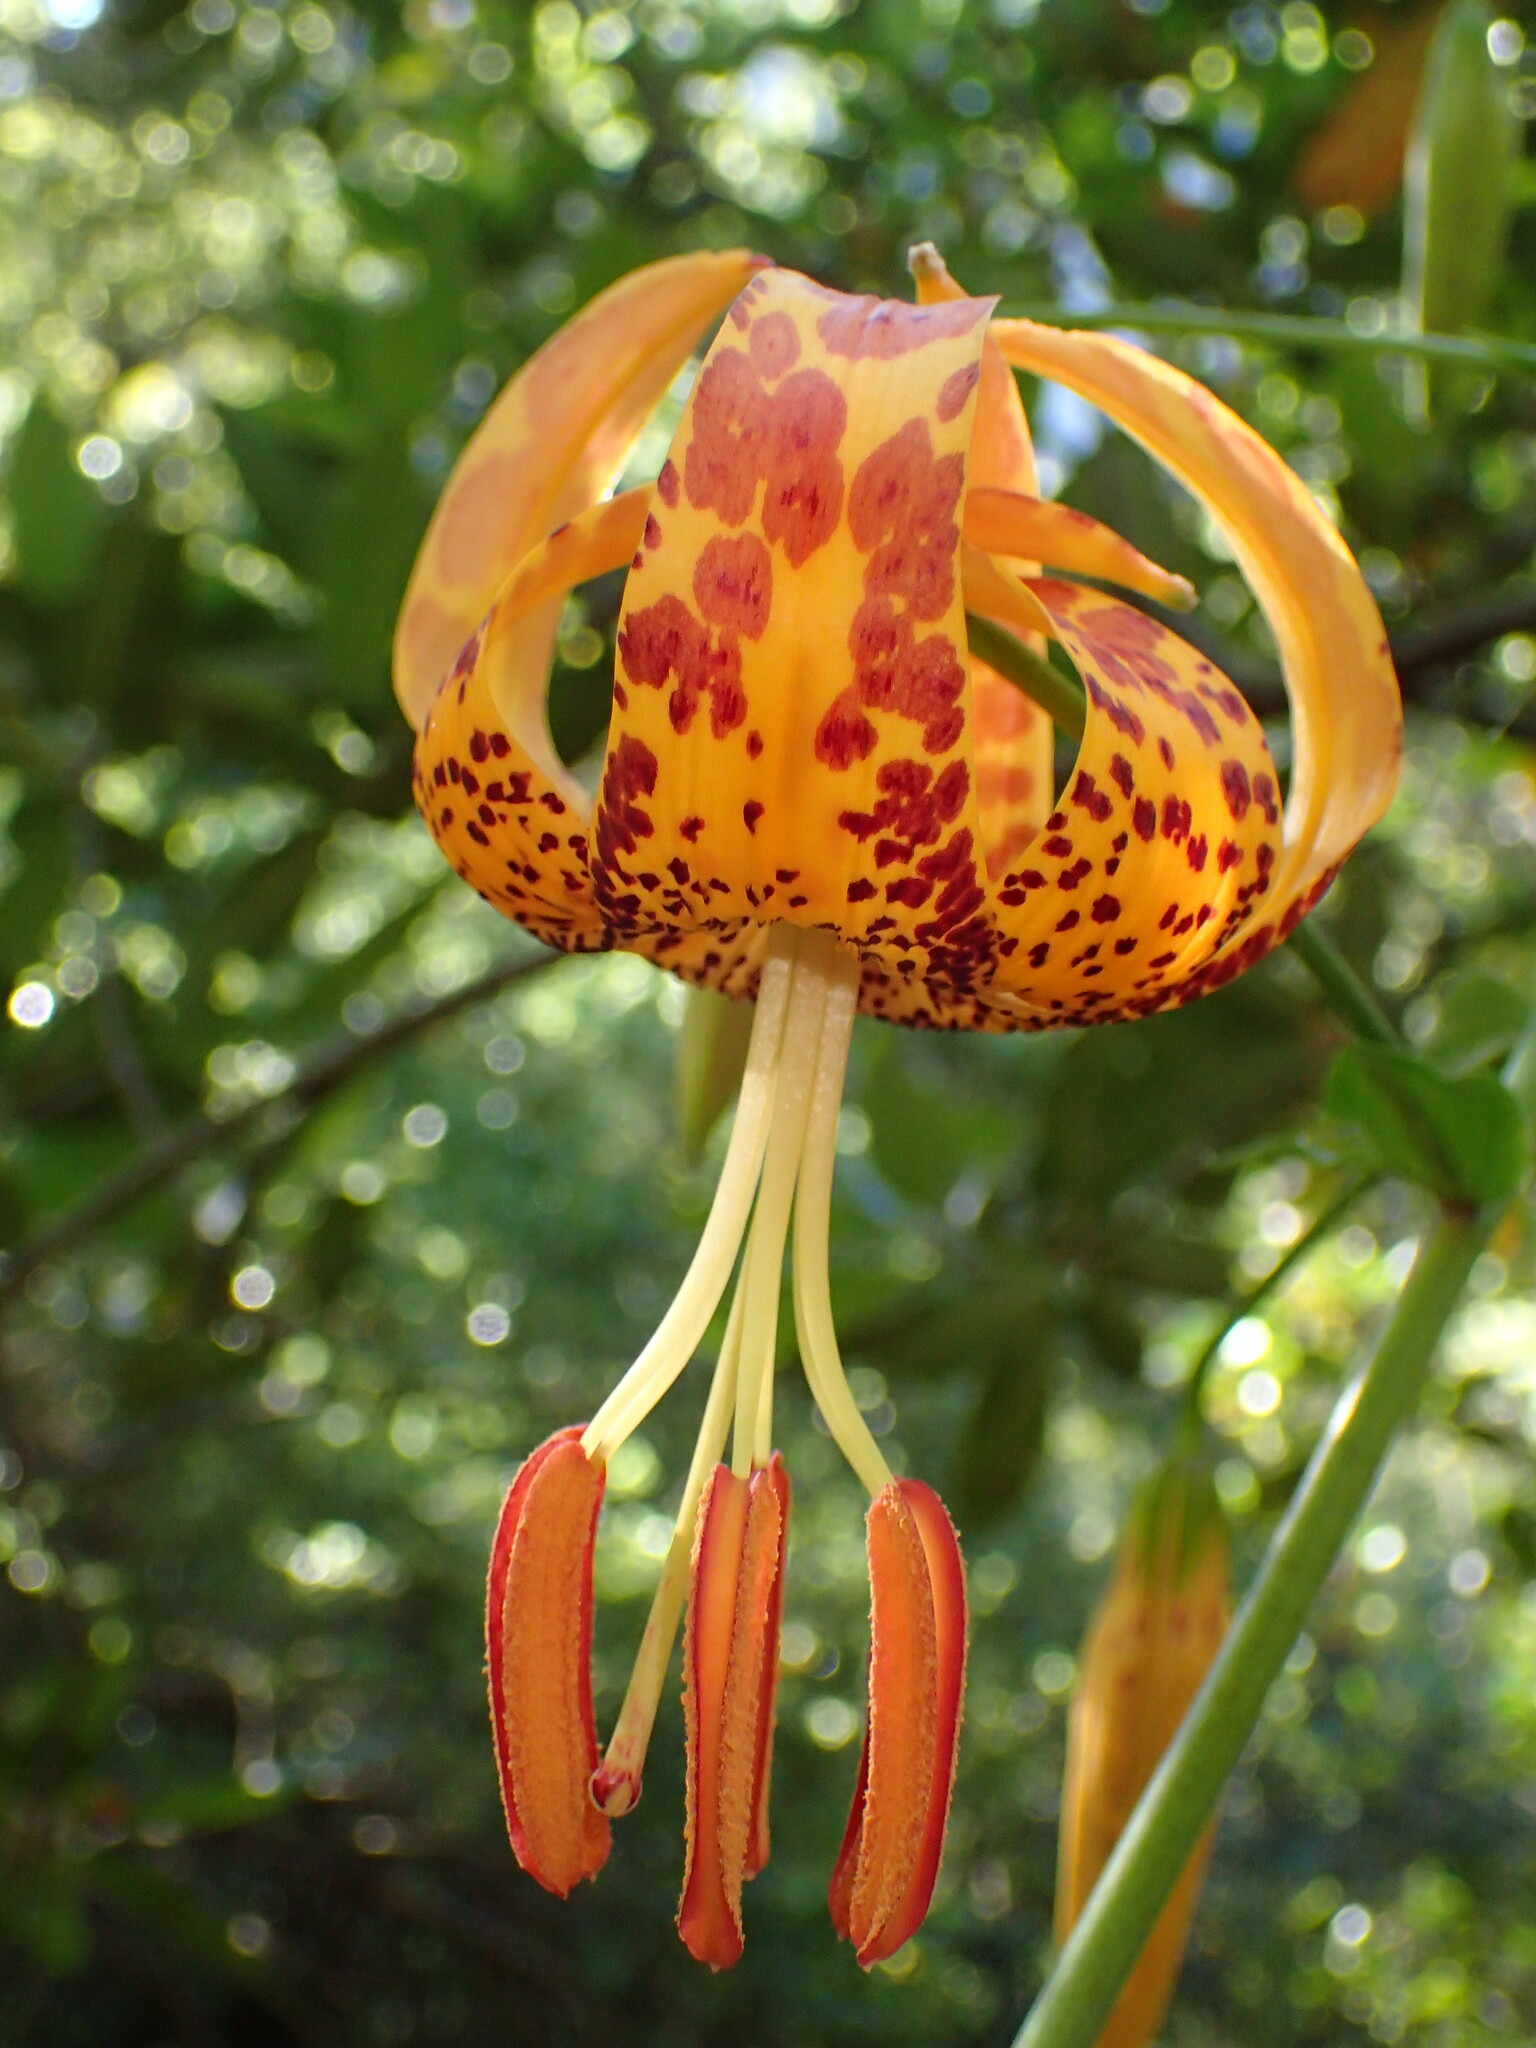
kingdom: Plantae
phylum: Tracheophyta
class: Liliopsida
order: Liliales
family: Liliaceae
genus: Lilium
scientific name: Lilium humboldtii
